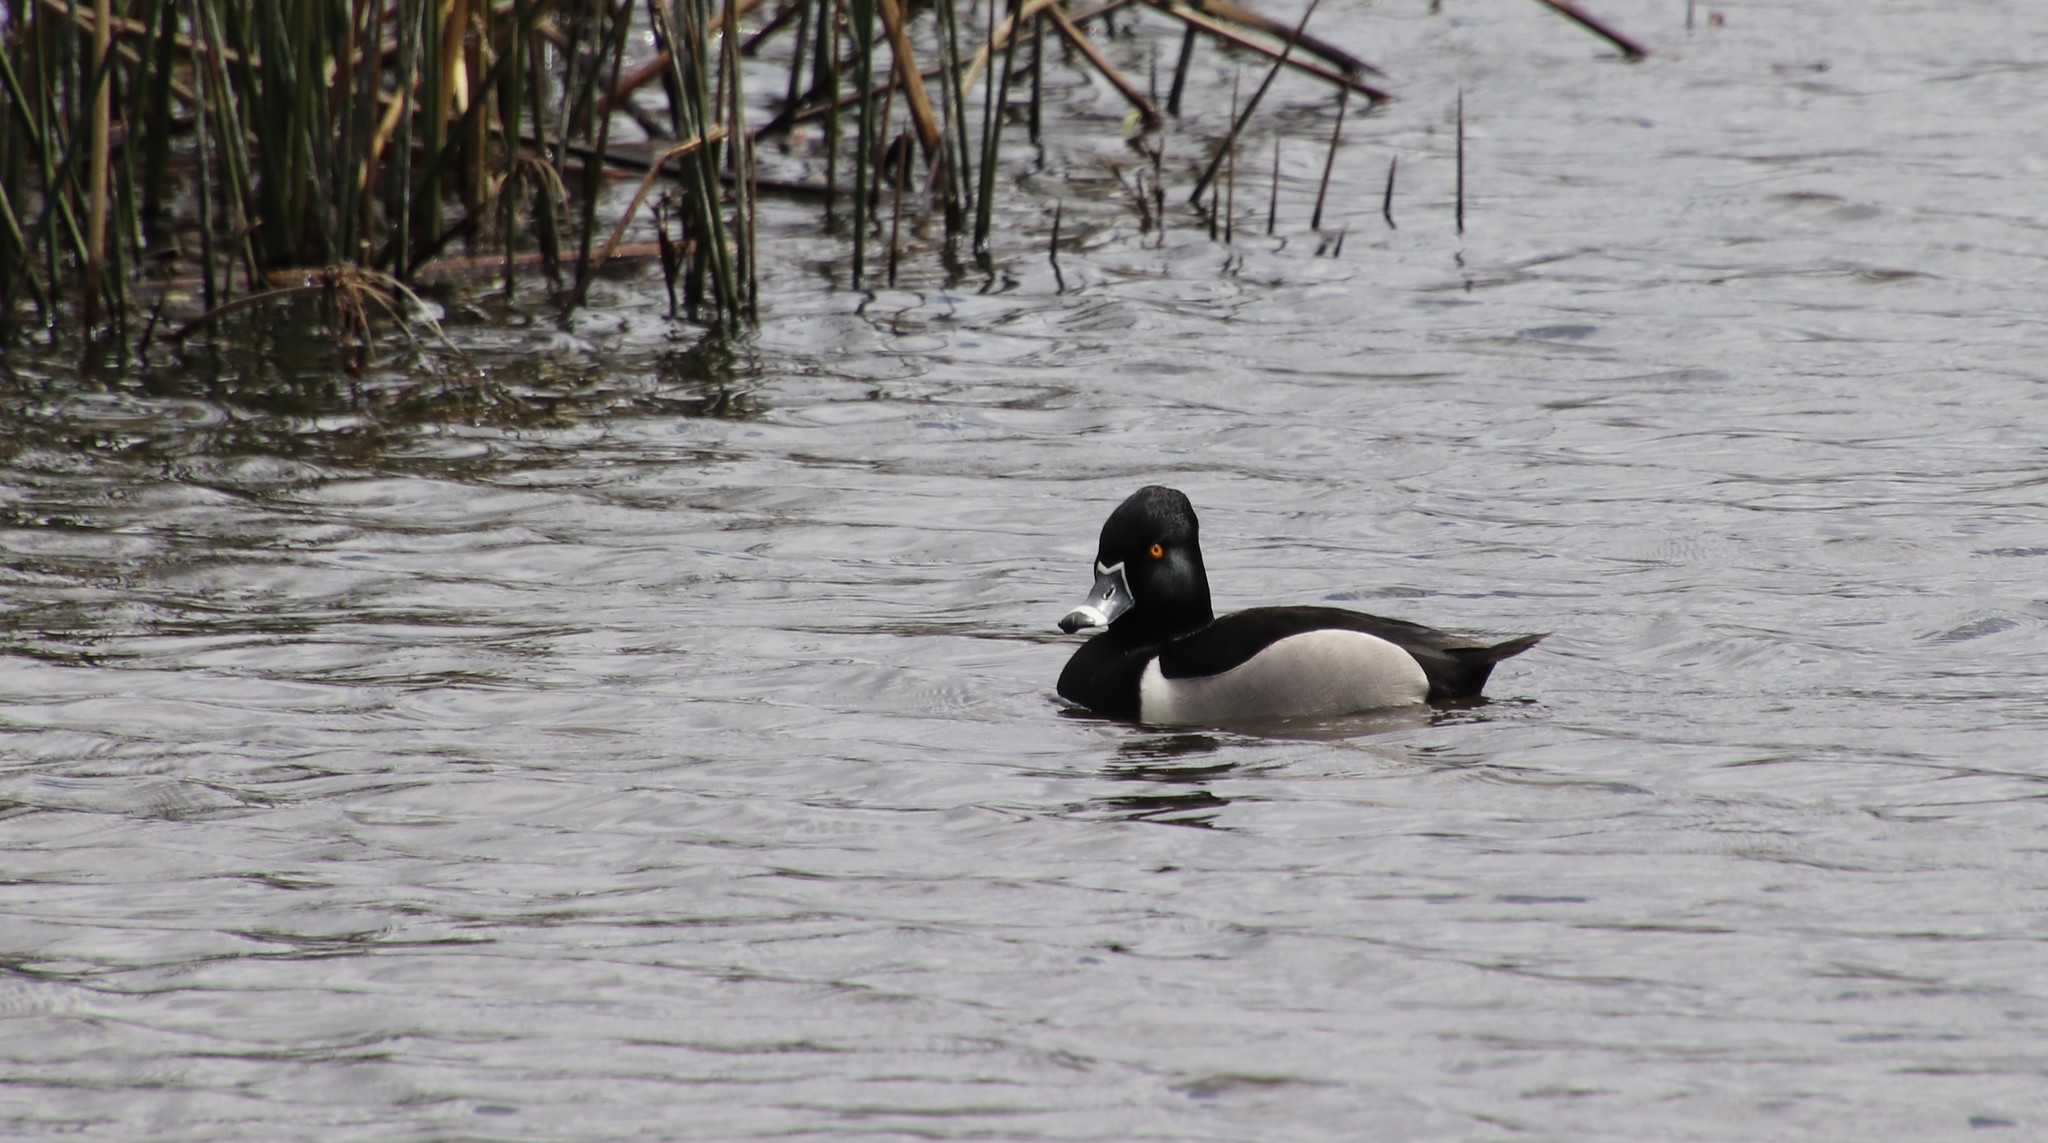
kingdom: Animalia
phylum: Chordata
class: Aves
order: Anseriformes
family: Anatidae
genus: Aythya
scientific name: Aythya collaris
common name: Ring-necked duck
